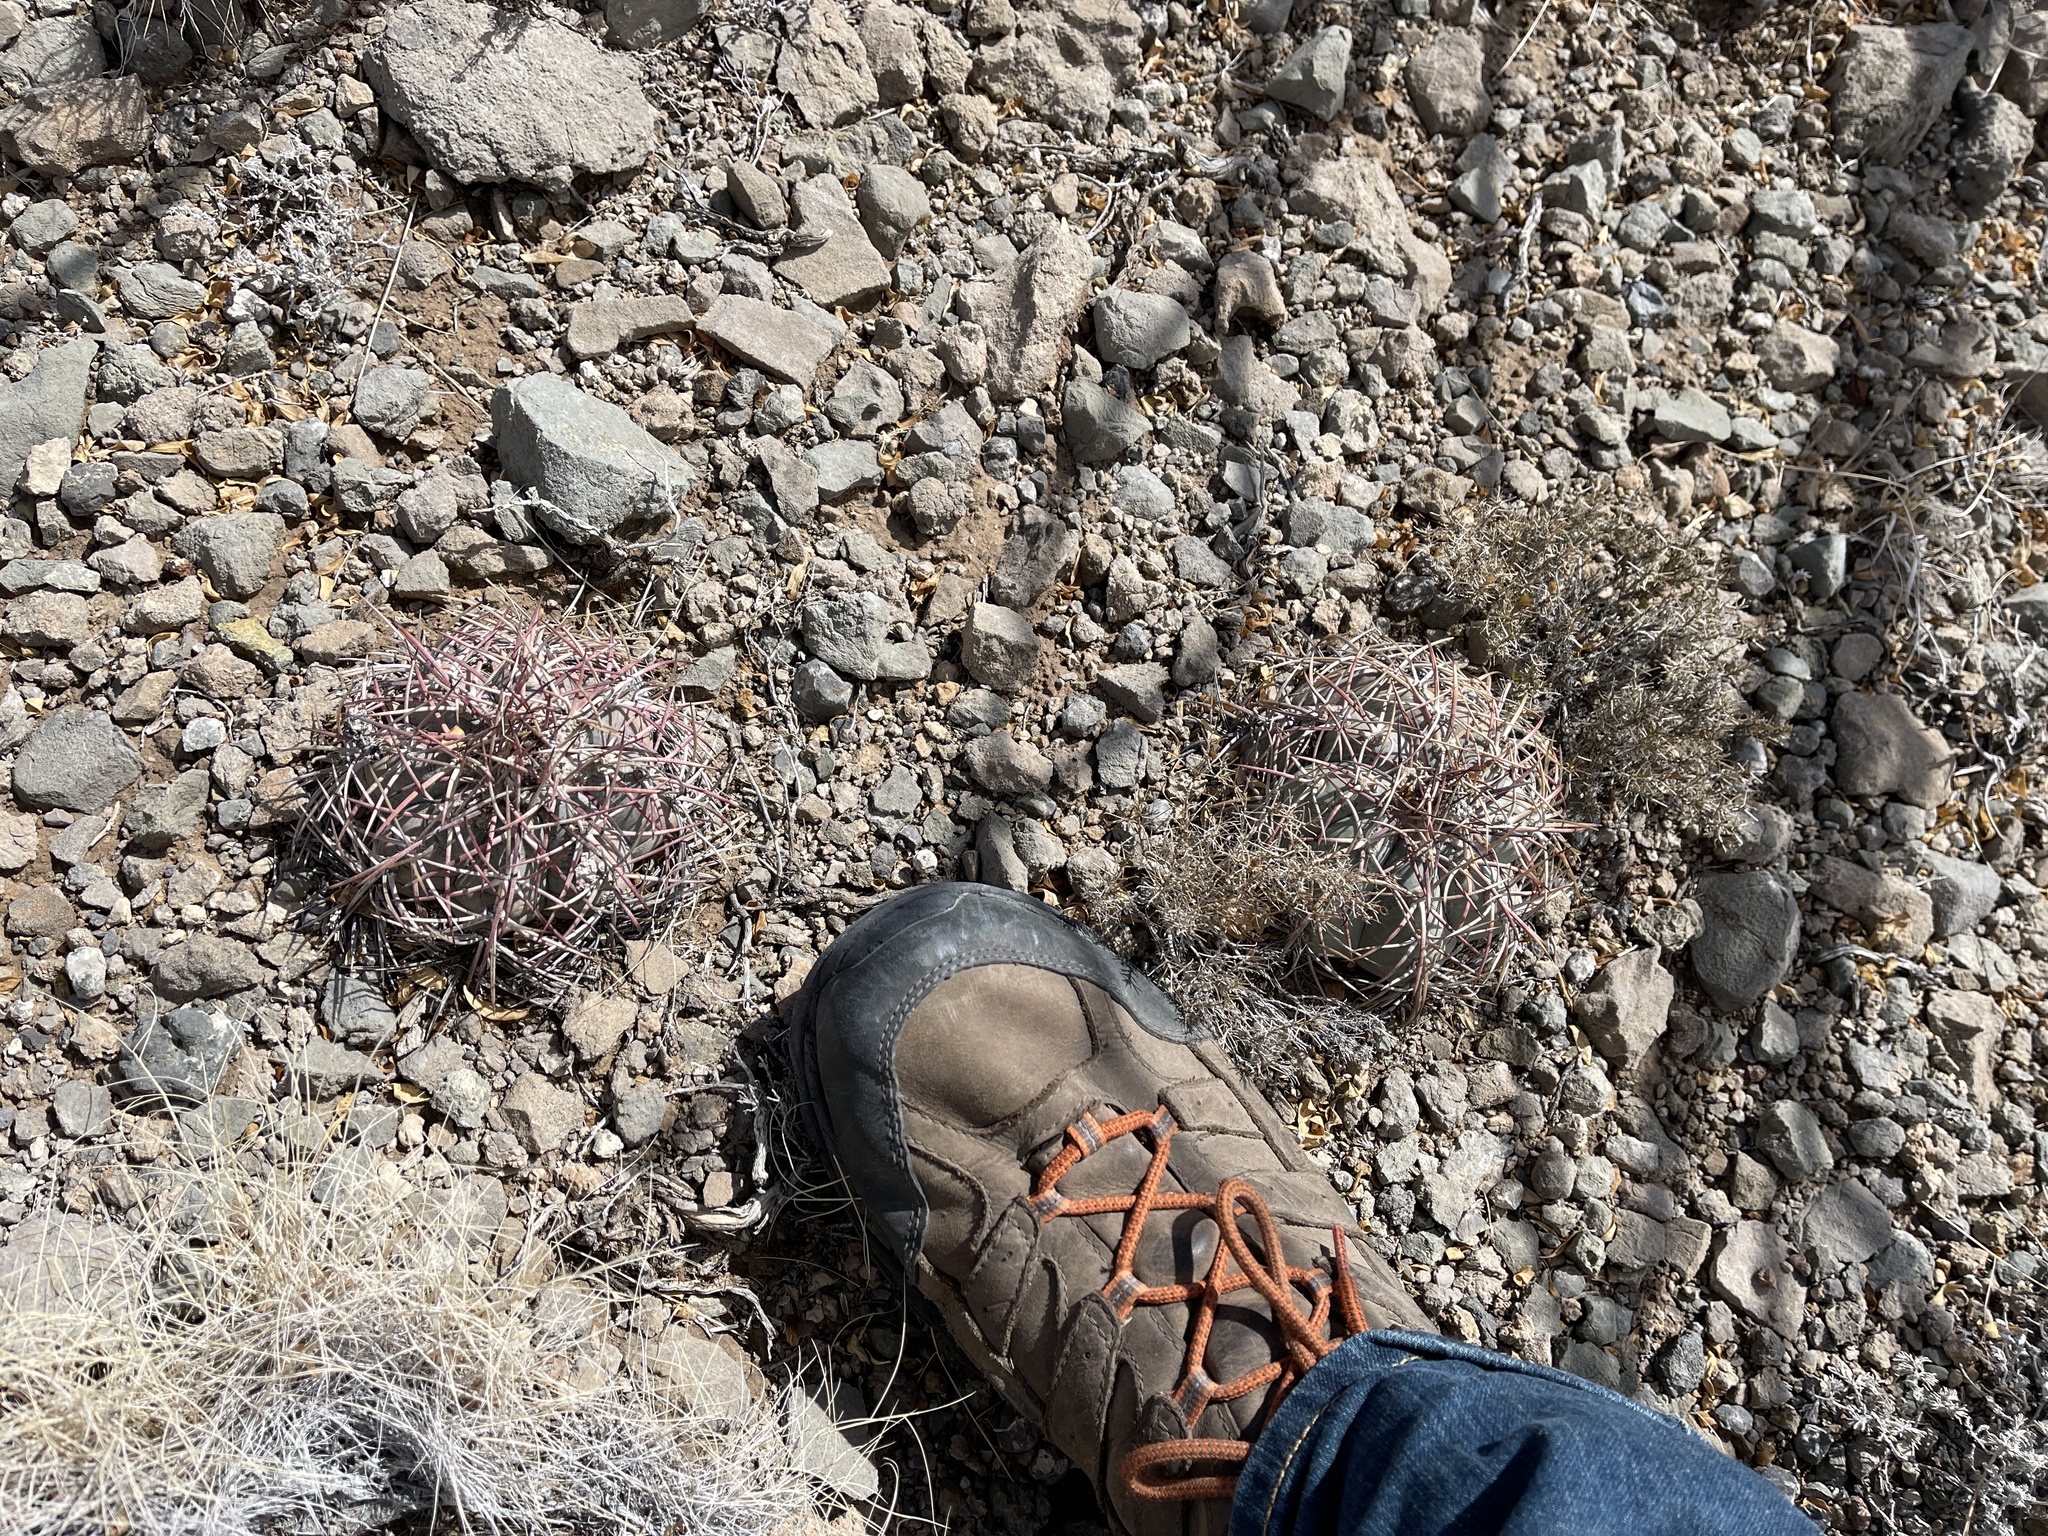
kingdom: Plantae
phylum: Tracheophyta
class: Magnoliopsida
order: Caryophyllales
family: Cactaceae
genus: Echinocactus
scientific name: Echinocactus horizonthalonius
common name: Devilshead
